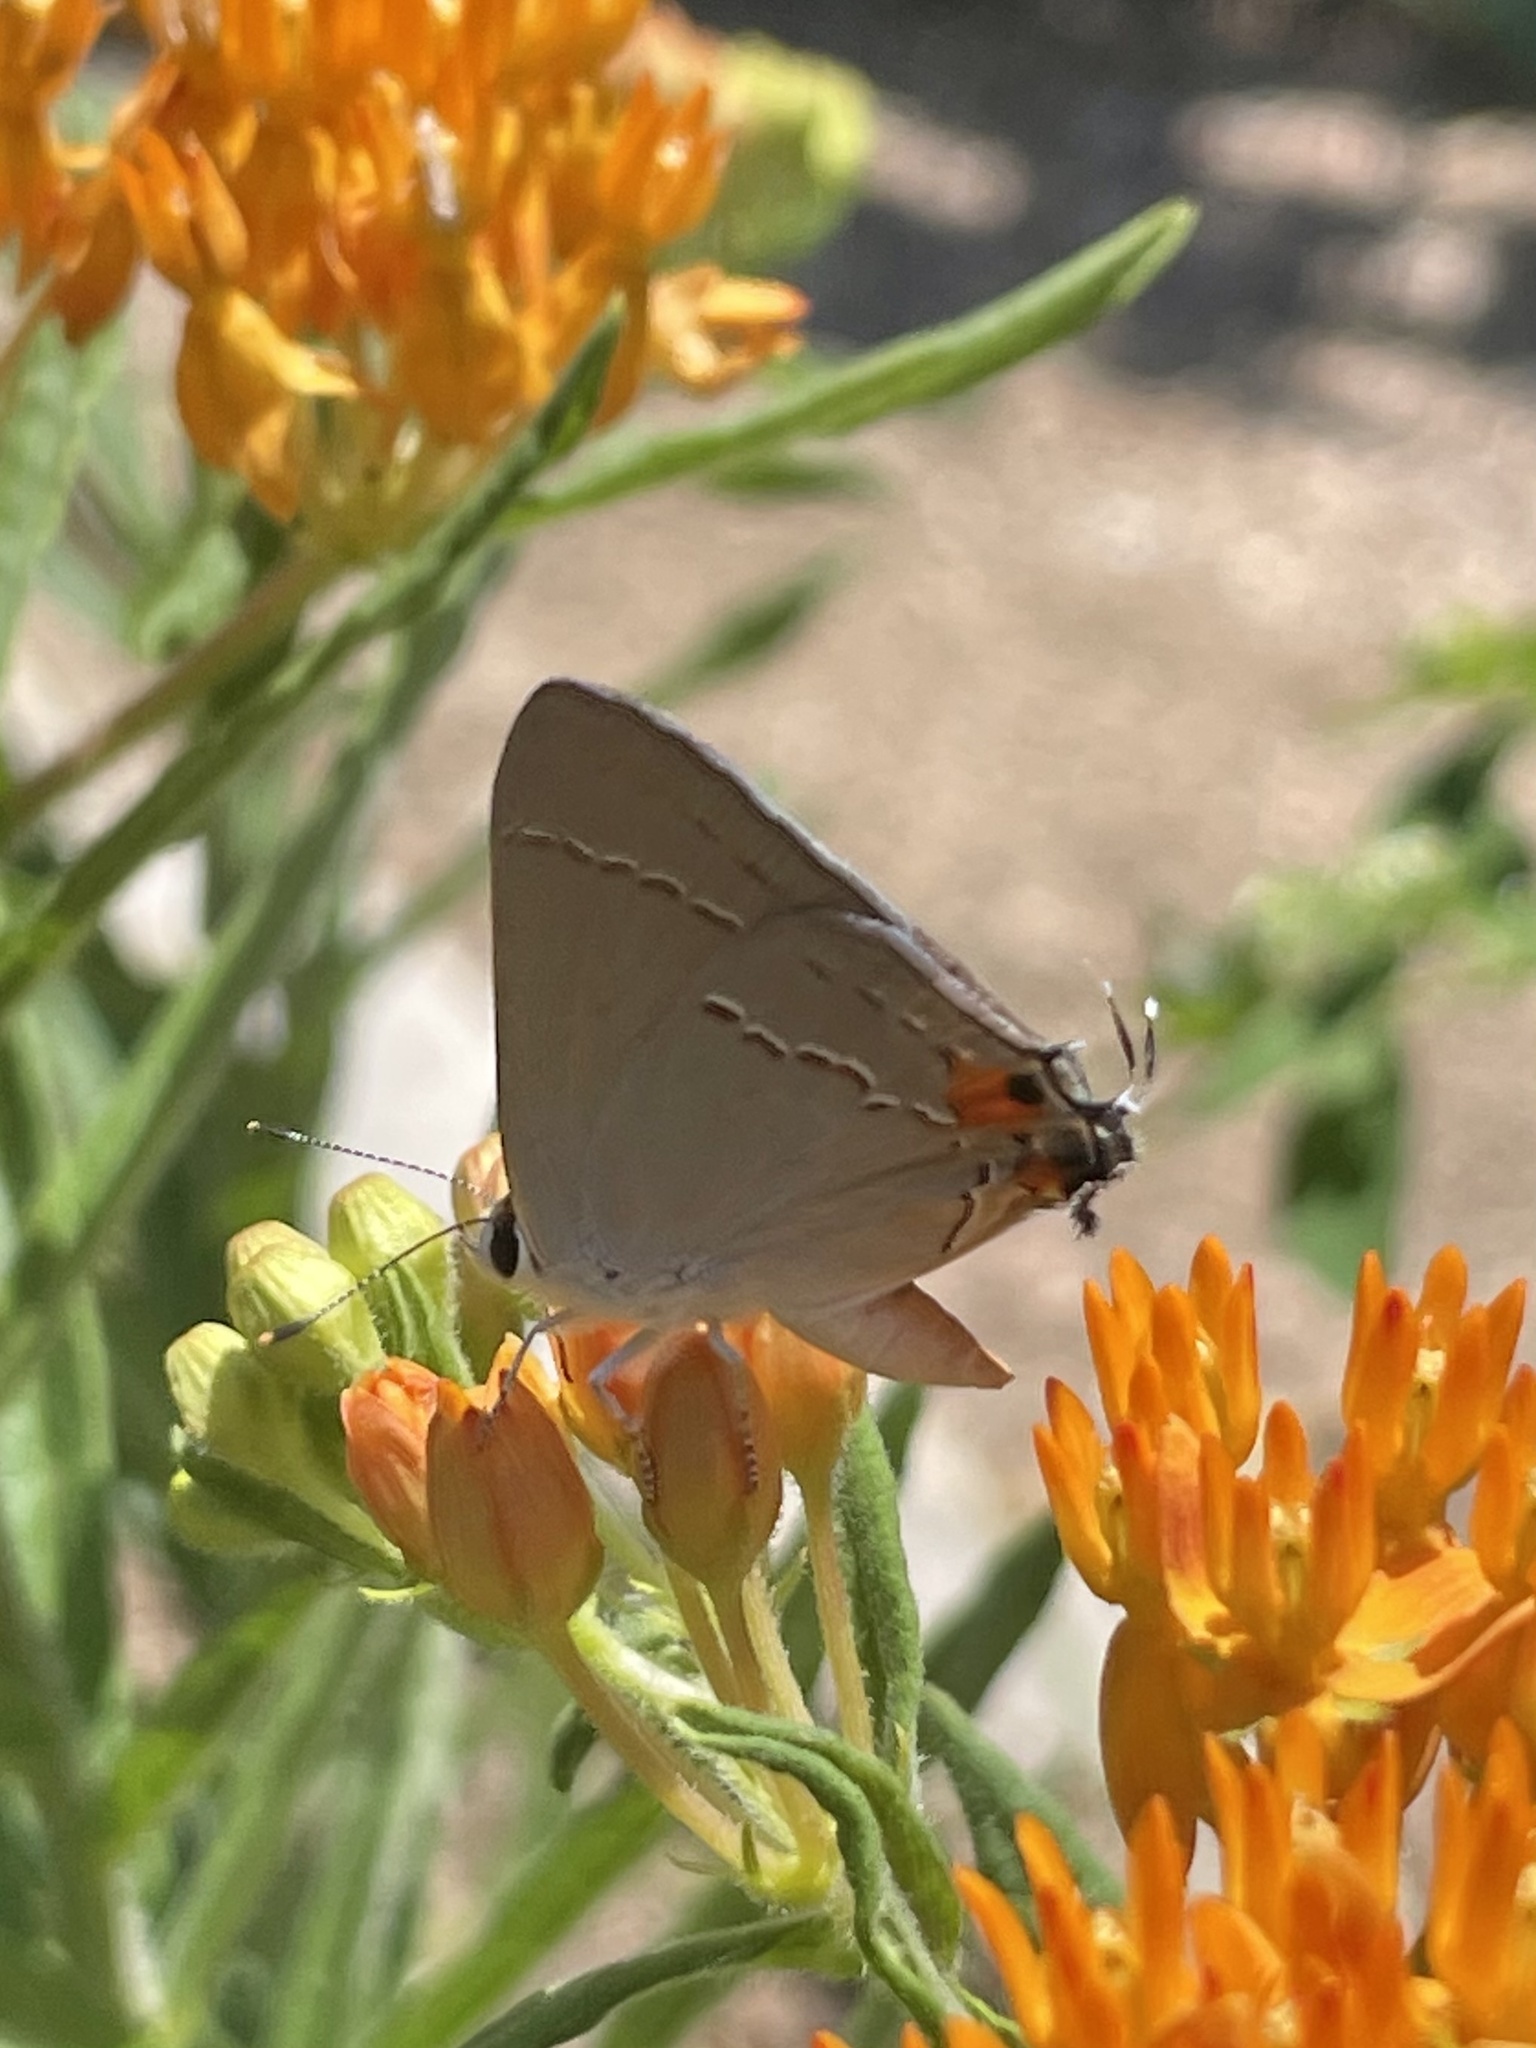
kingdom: Animalia
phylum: Arthropoda
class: Insecta
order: Lepidoptera
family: Lycaenidae
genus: Strymon
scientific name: Strymon melinus
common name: Gray hairstreak
